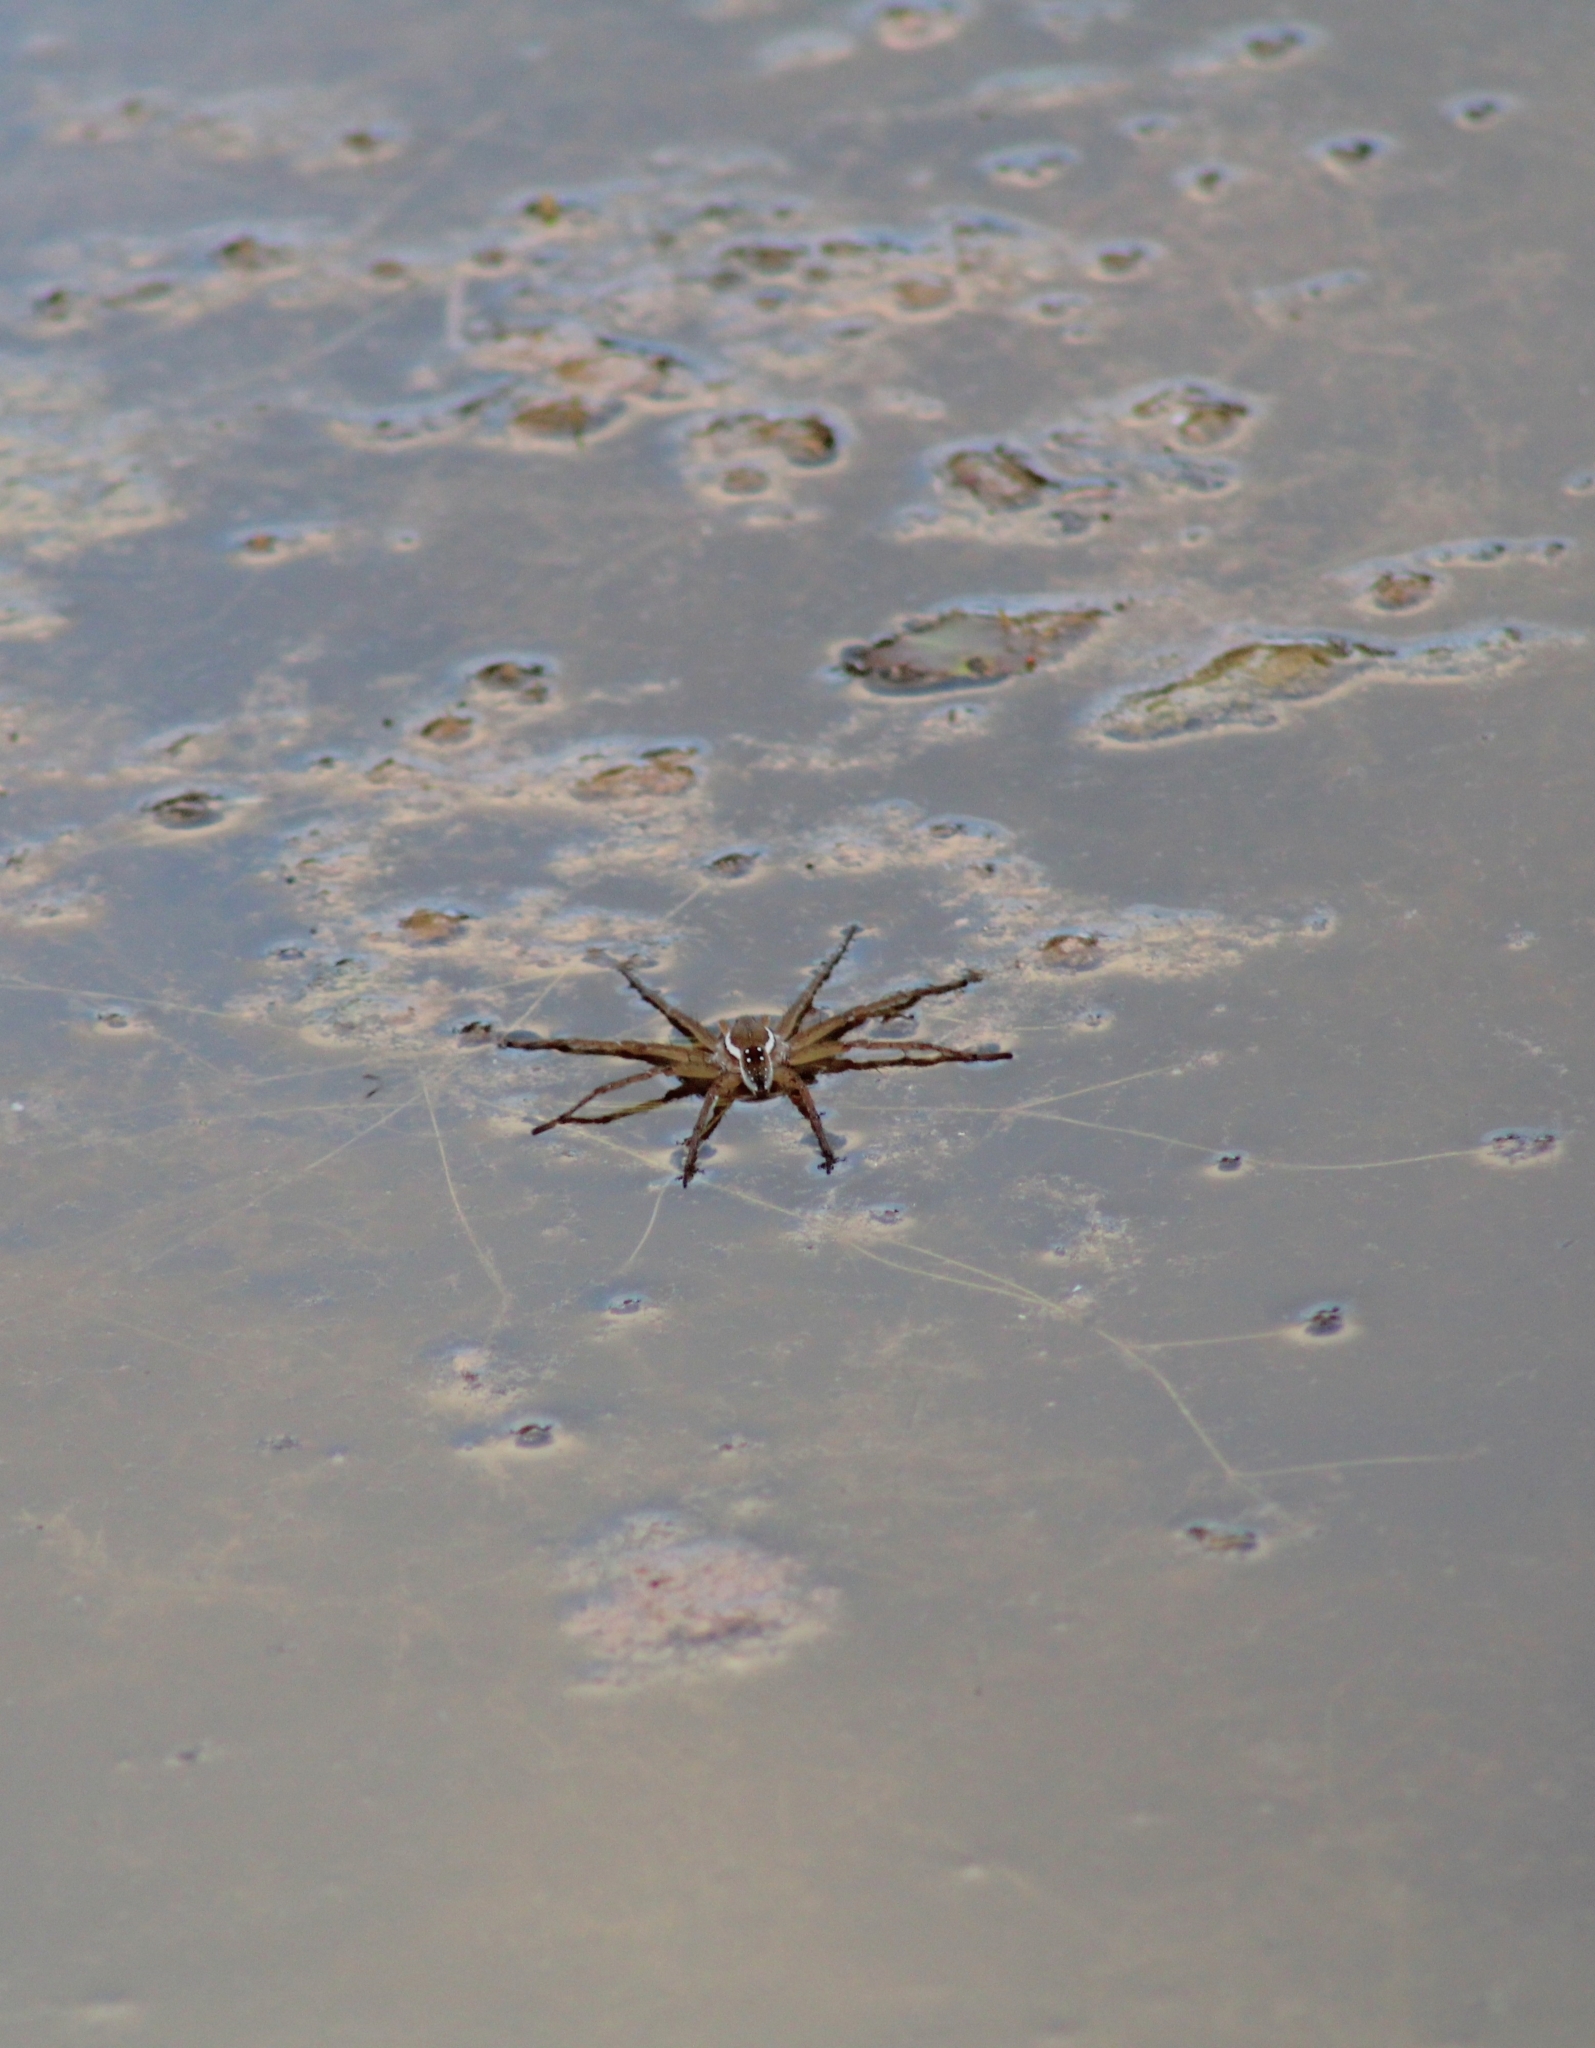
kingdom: Animalia
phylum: Arthropoda
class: Arachnida
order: Araneae
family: Pisauridae
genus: Dolomedes
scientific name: Dolomedes triton
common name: Six-spotted fishing spider
